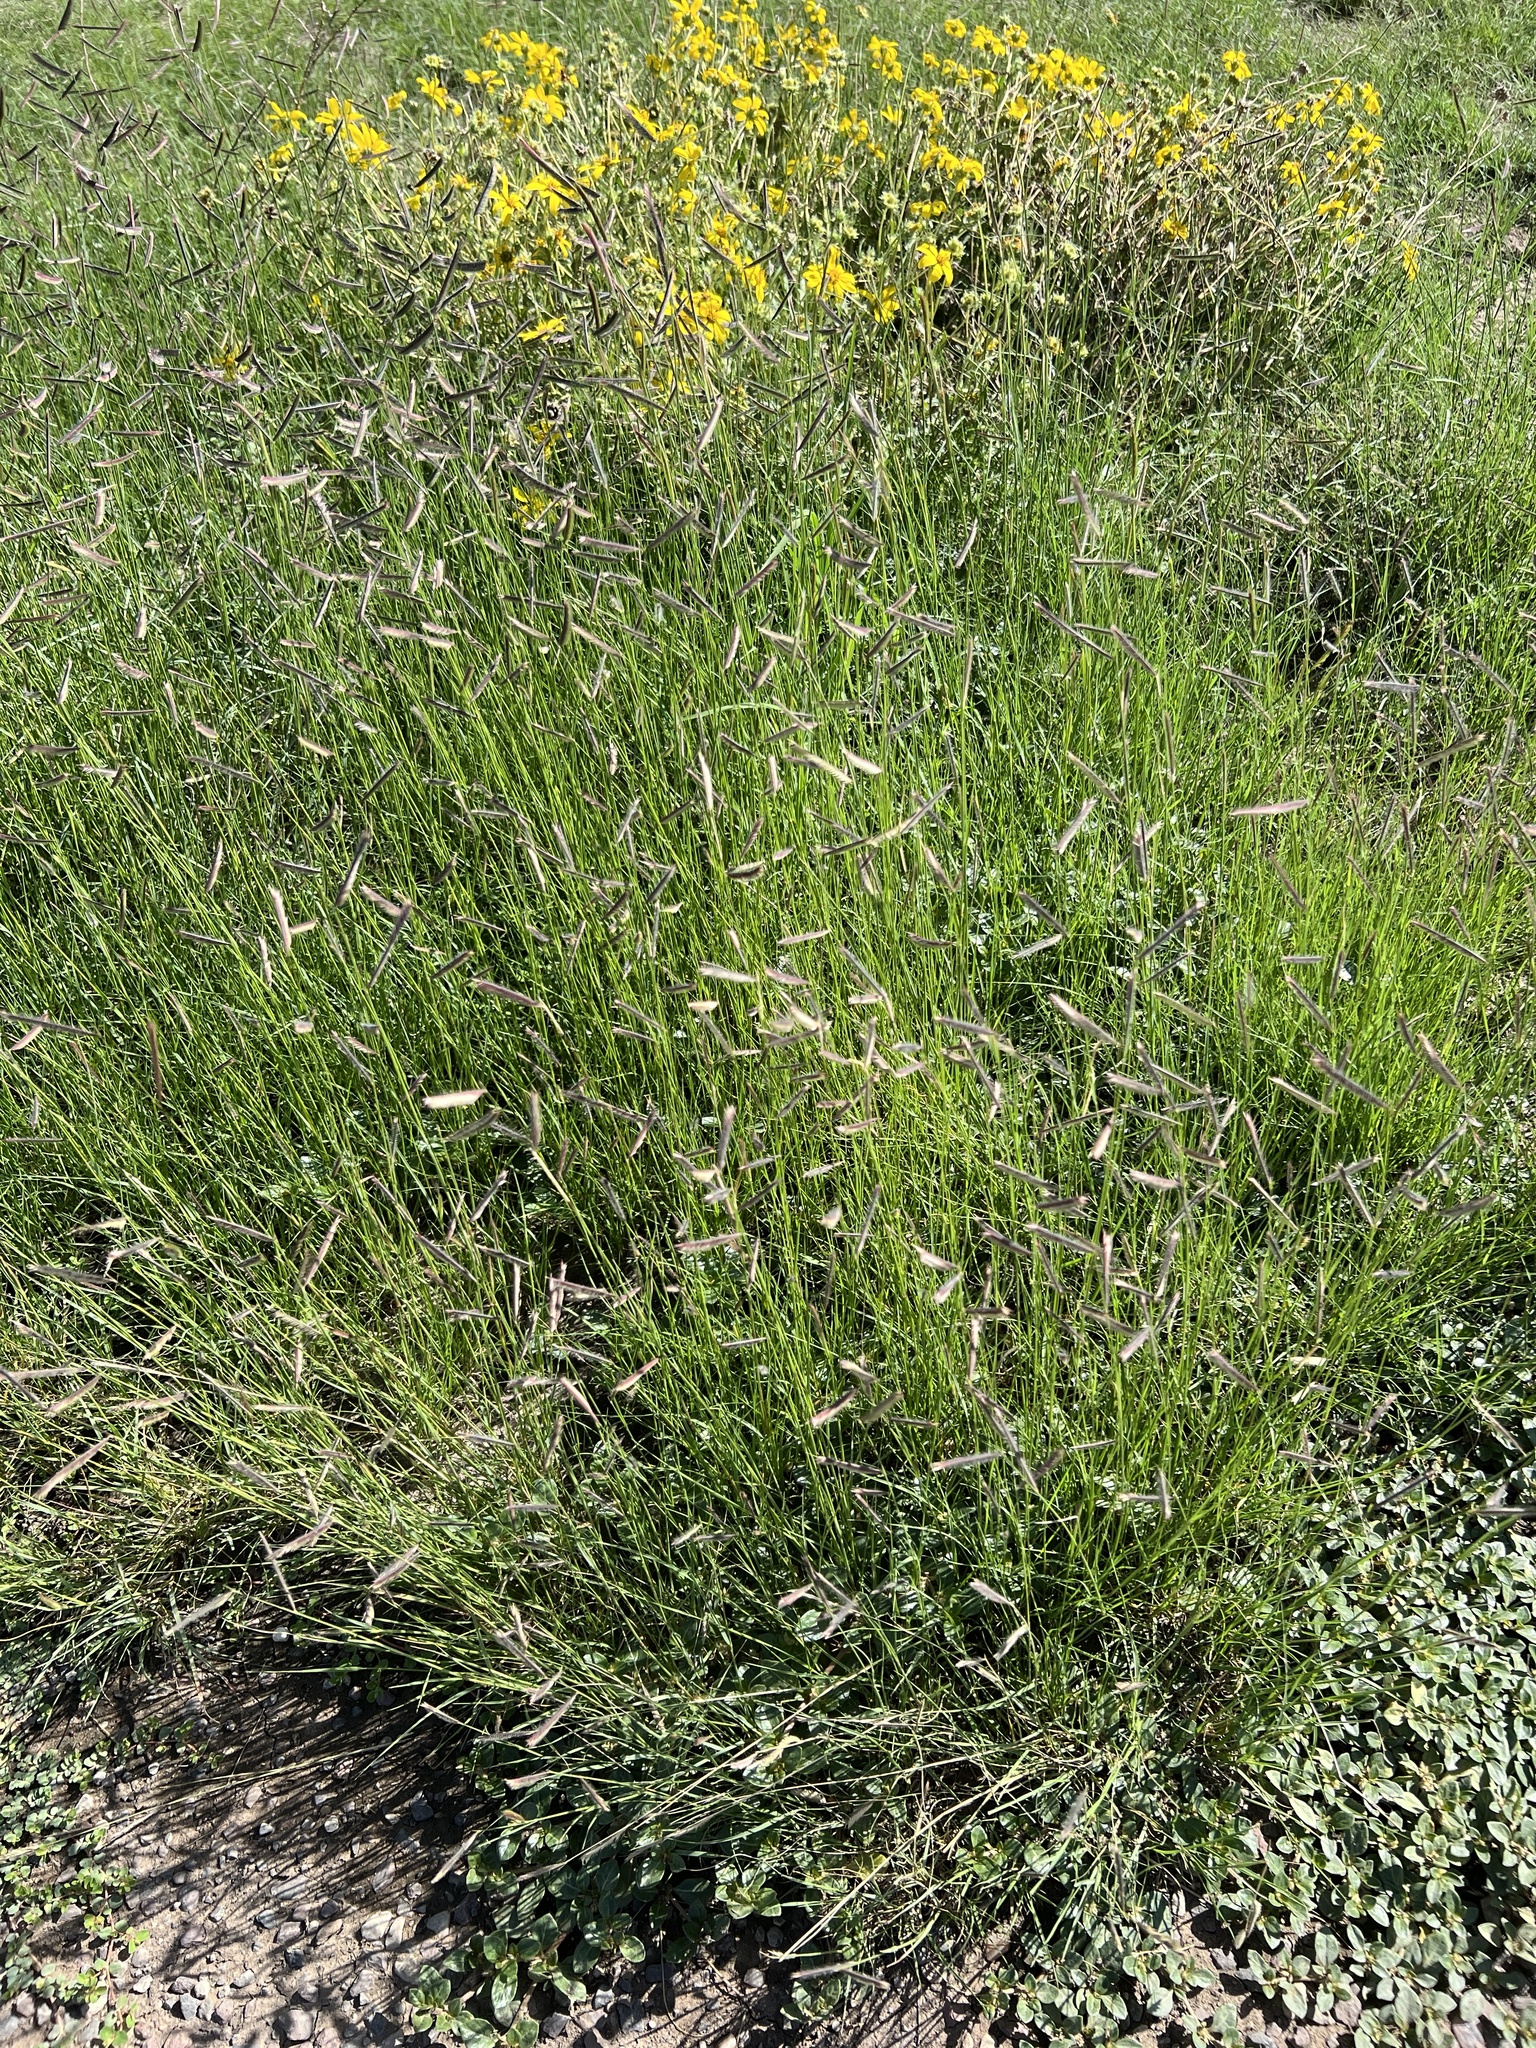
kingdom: Plantae
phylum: Tracheophyta
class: Liliopsida
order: Poales
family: Poaceae
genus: Bouteloua
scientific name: Bouteloua gracilis
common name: Blue grama
